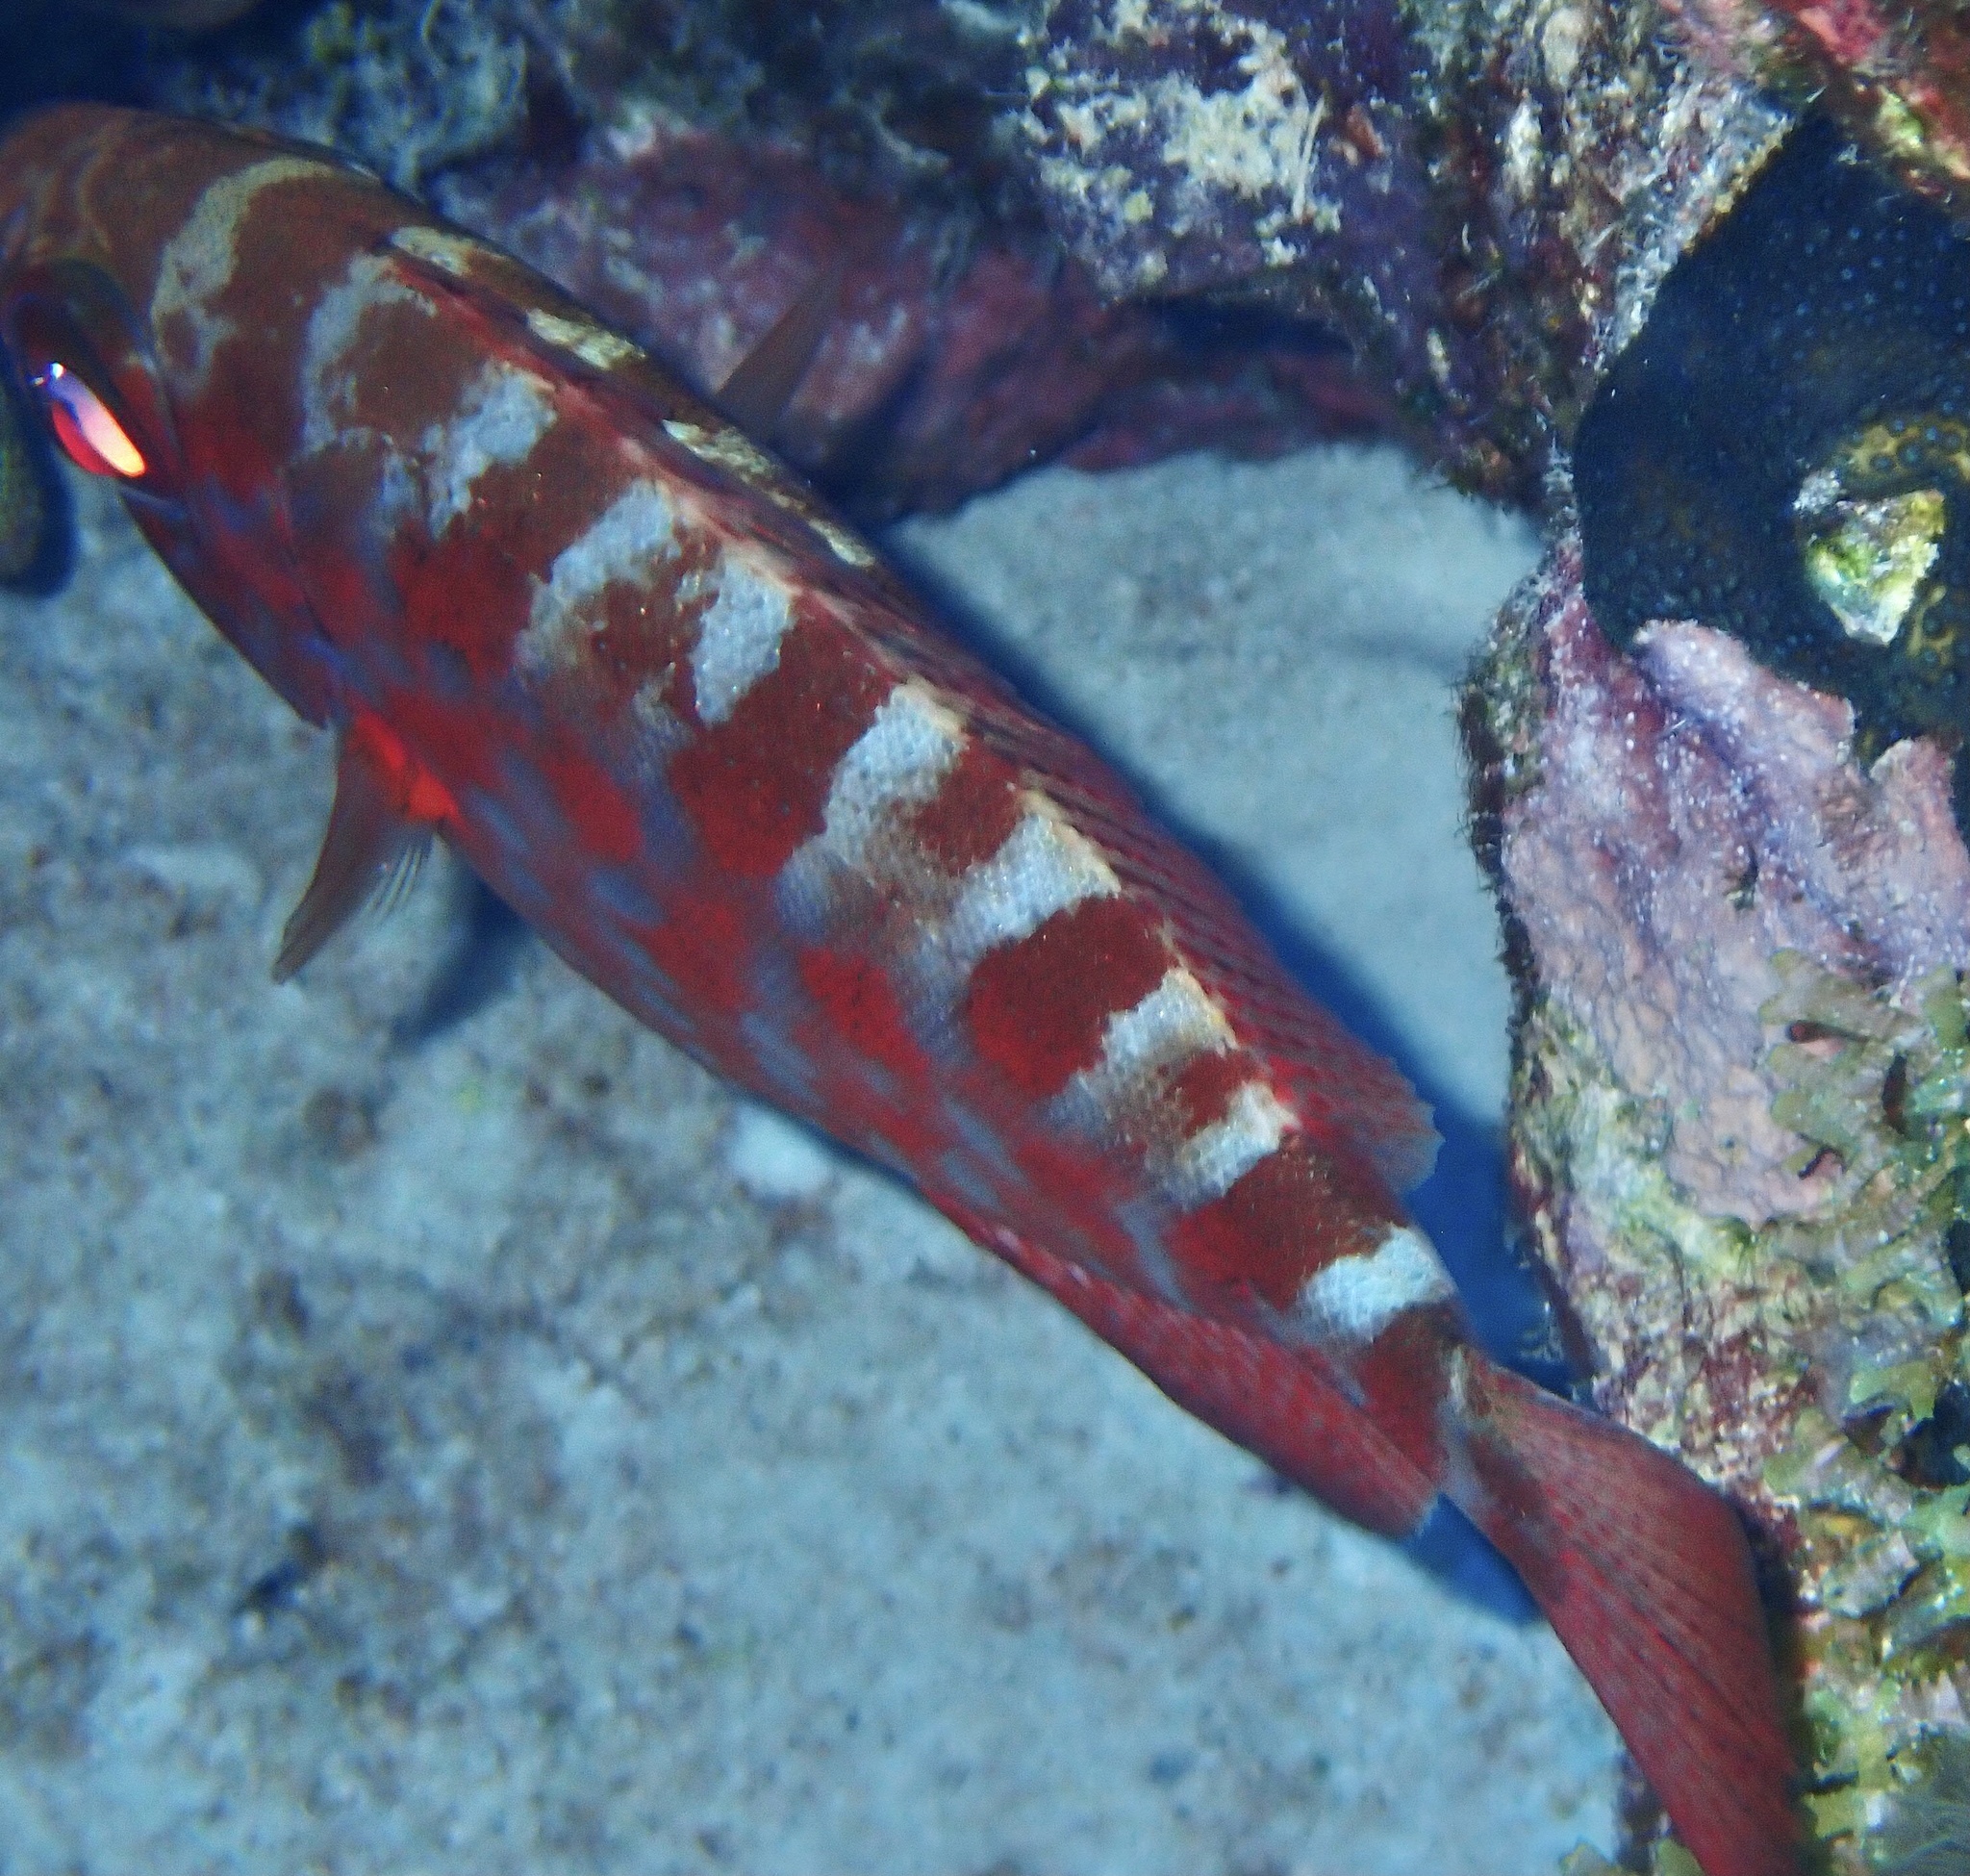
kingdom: Animalia
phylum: Chordata
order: Perciformes
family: Priacanthidae
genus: Heteropriacanthus
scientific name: Heteropriacanthus cruentatus
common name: Glasseye
